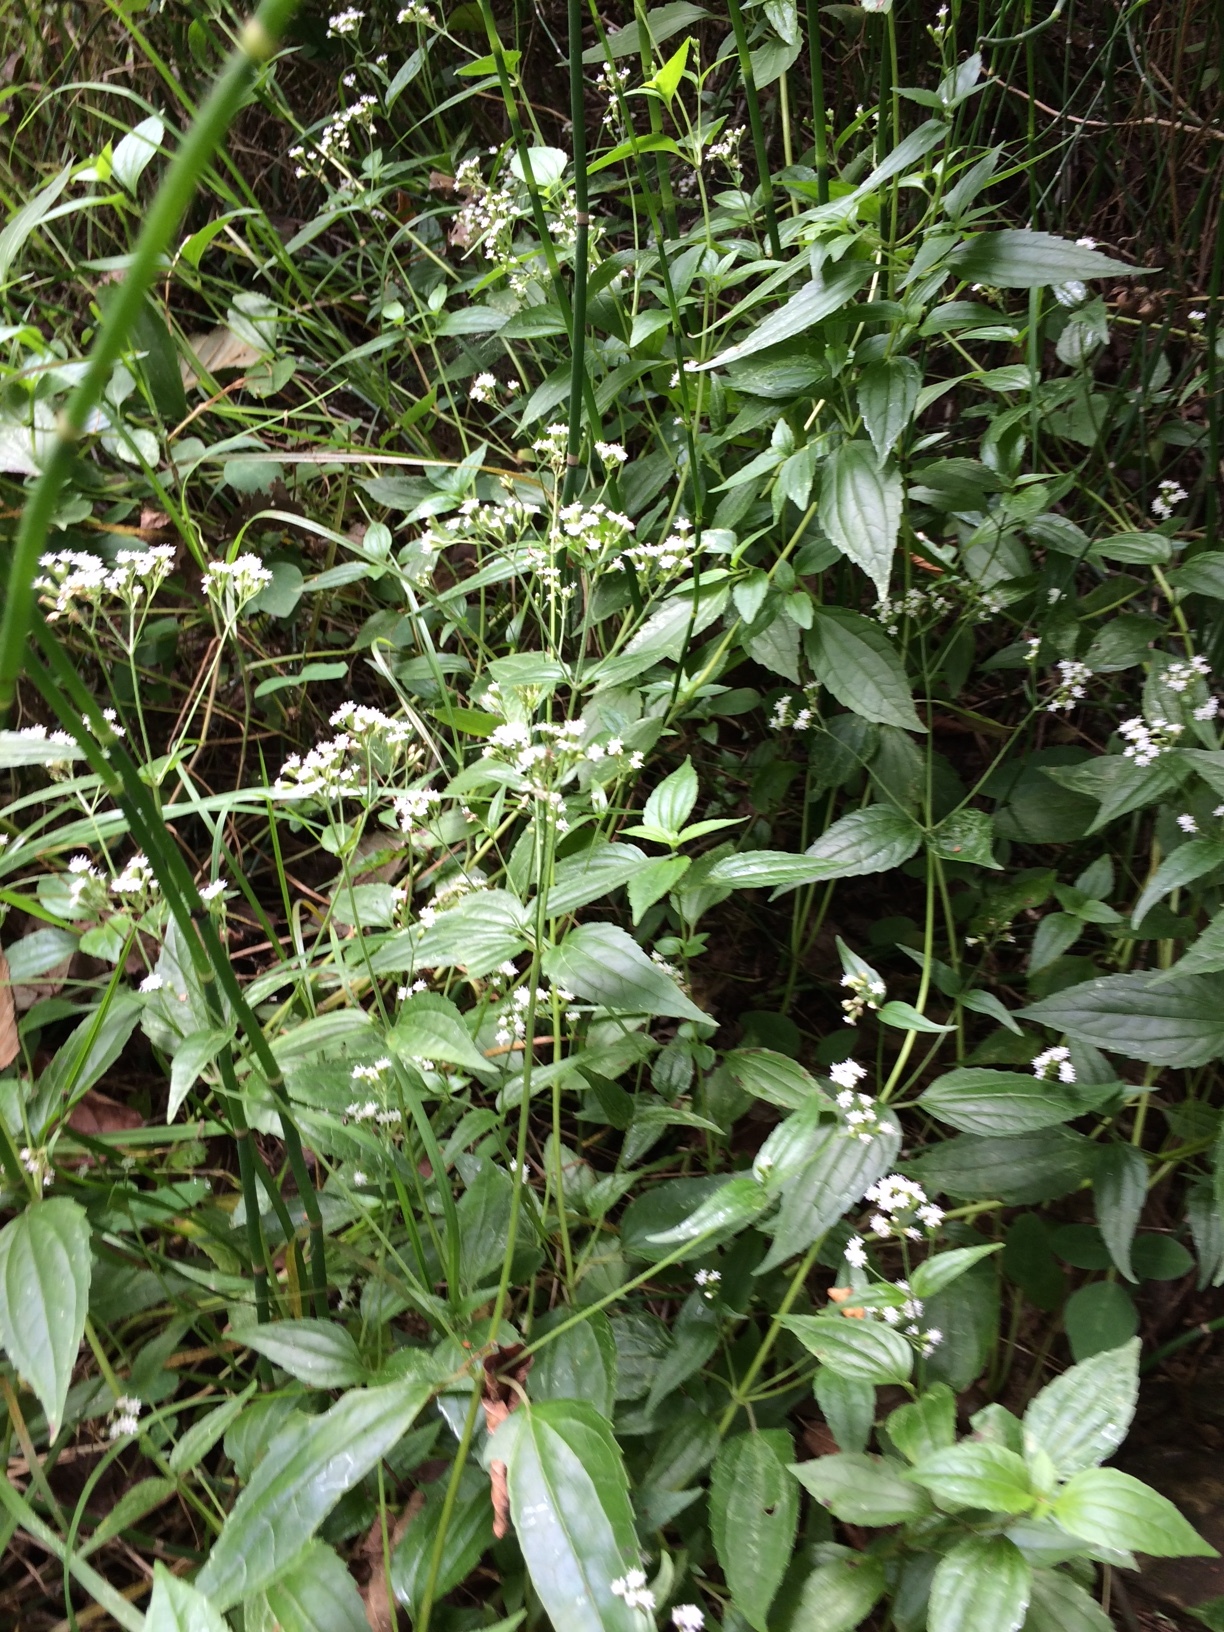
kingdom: Plantae
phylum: Tracheophyta
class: Magnoliopsida
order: Asterales
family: Asteraceae
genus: Piqueria
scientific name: Piqueria trinervia
